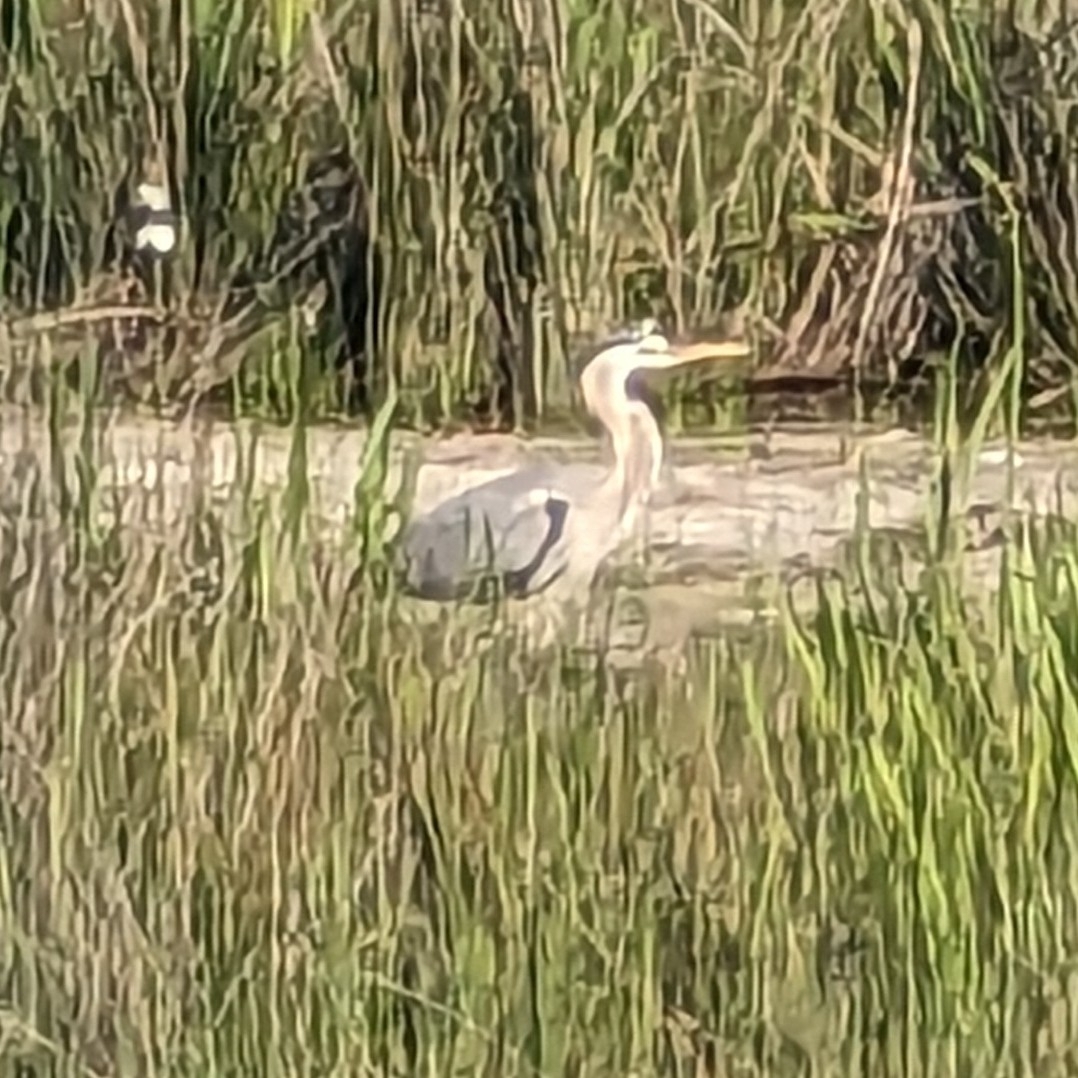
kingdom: Animalia
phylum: Chordata
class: Aves
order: Pelecaniformes
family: Ardeidae
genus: Ardea
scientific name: Ardea herodias
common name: Great blue heron
